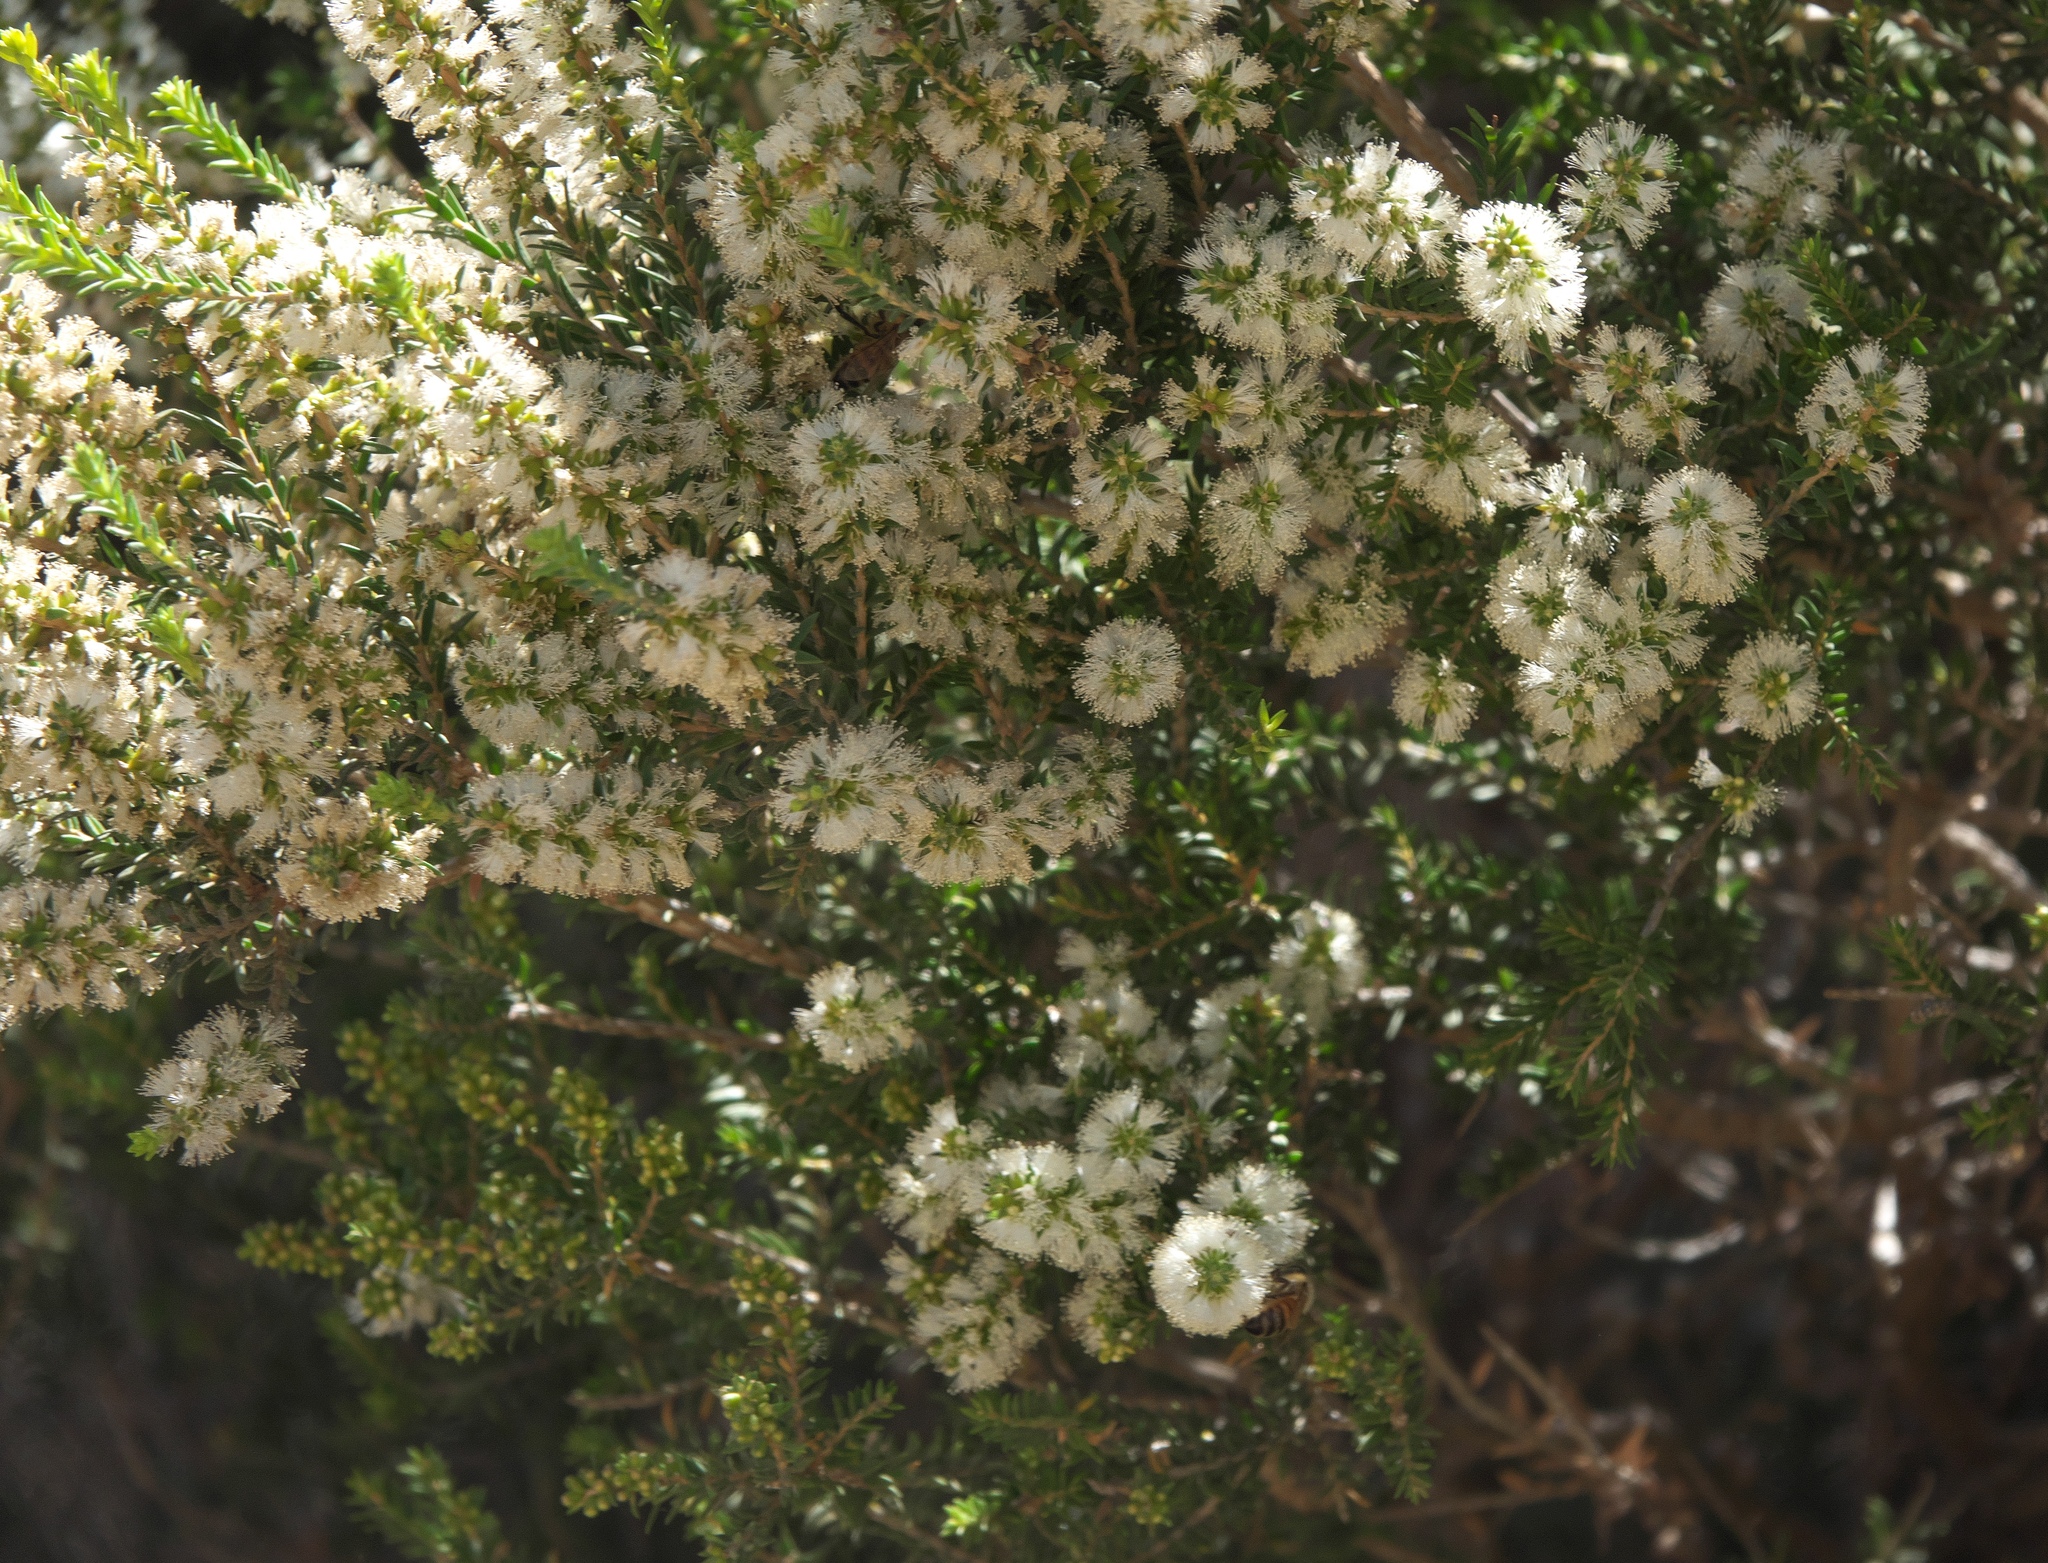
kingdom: Plantae
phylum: Tracheophyta
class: Magnoliopsida
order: Myrtales
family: Myrtaceae
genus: Melaleuca
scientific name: Melaleuca lanceolata
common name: Rottnest island teatree
